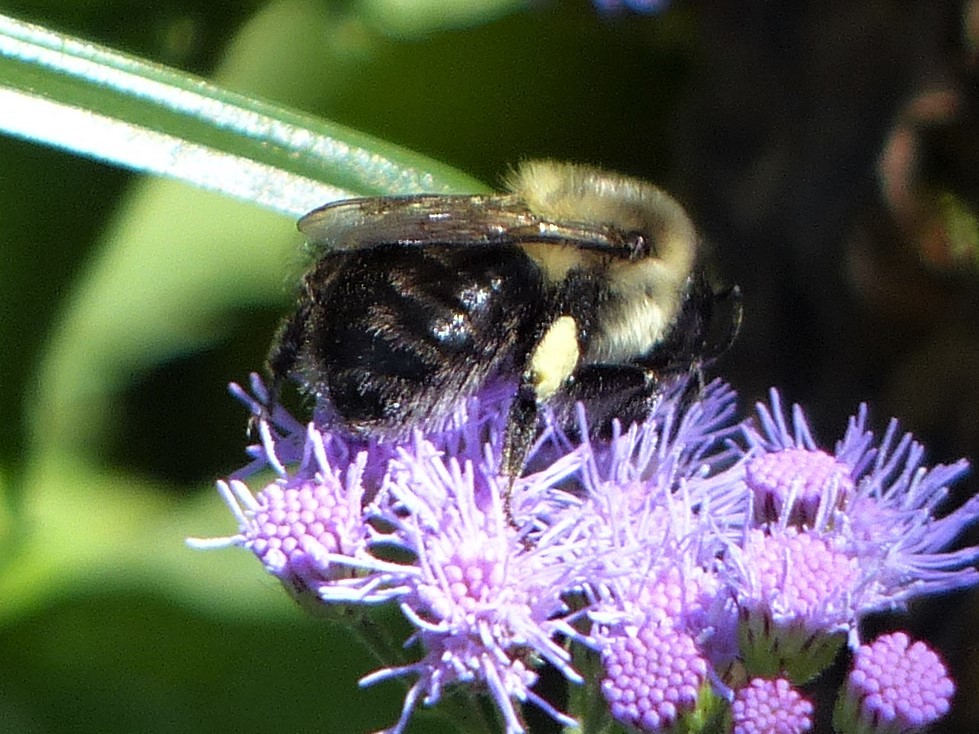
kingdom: Animalia
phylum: Arthropoda
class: Insecta
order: Hymenoptera
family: Apidae
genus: Bombus
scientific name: Bombus impatiens
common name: Common eastern bumble bee
